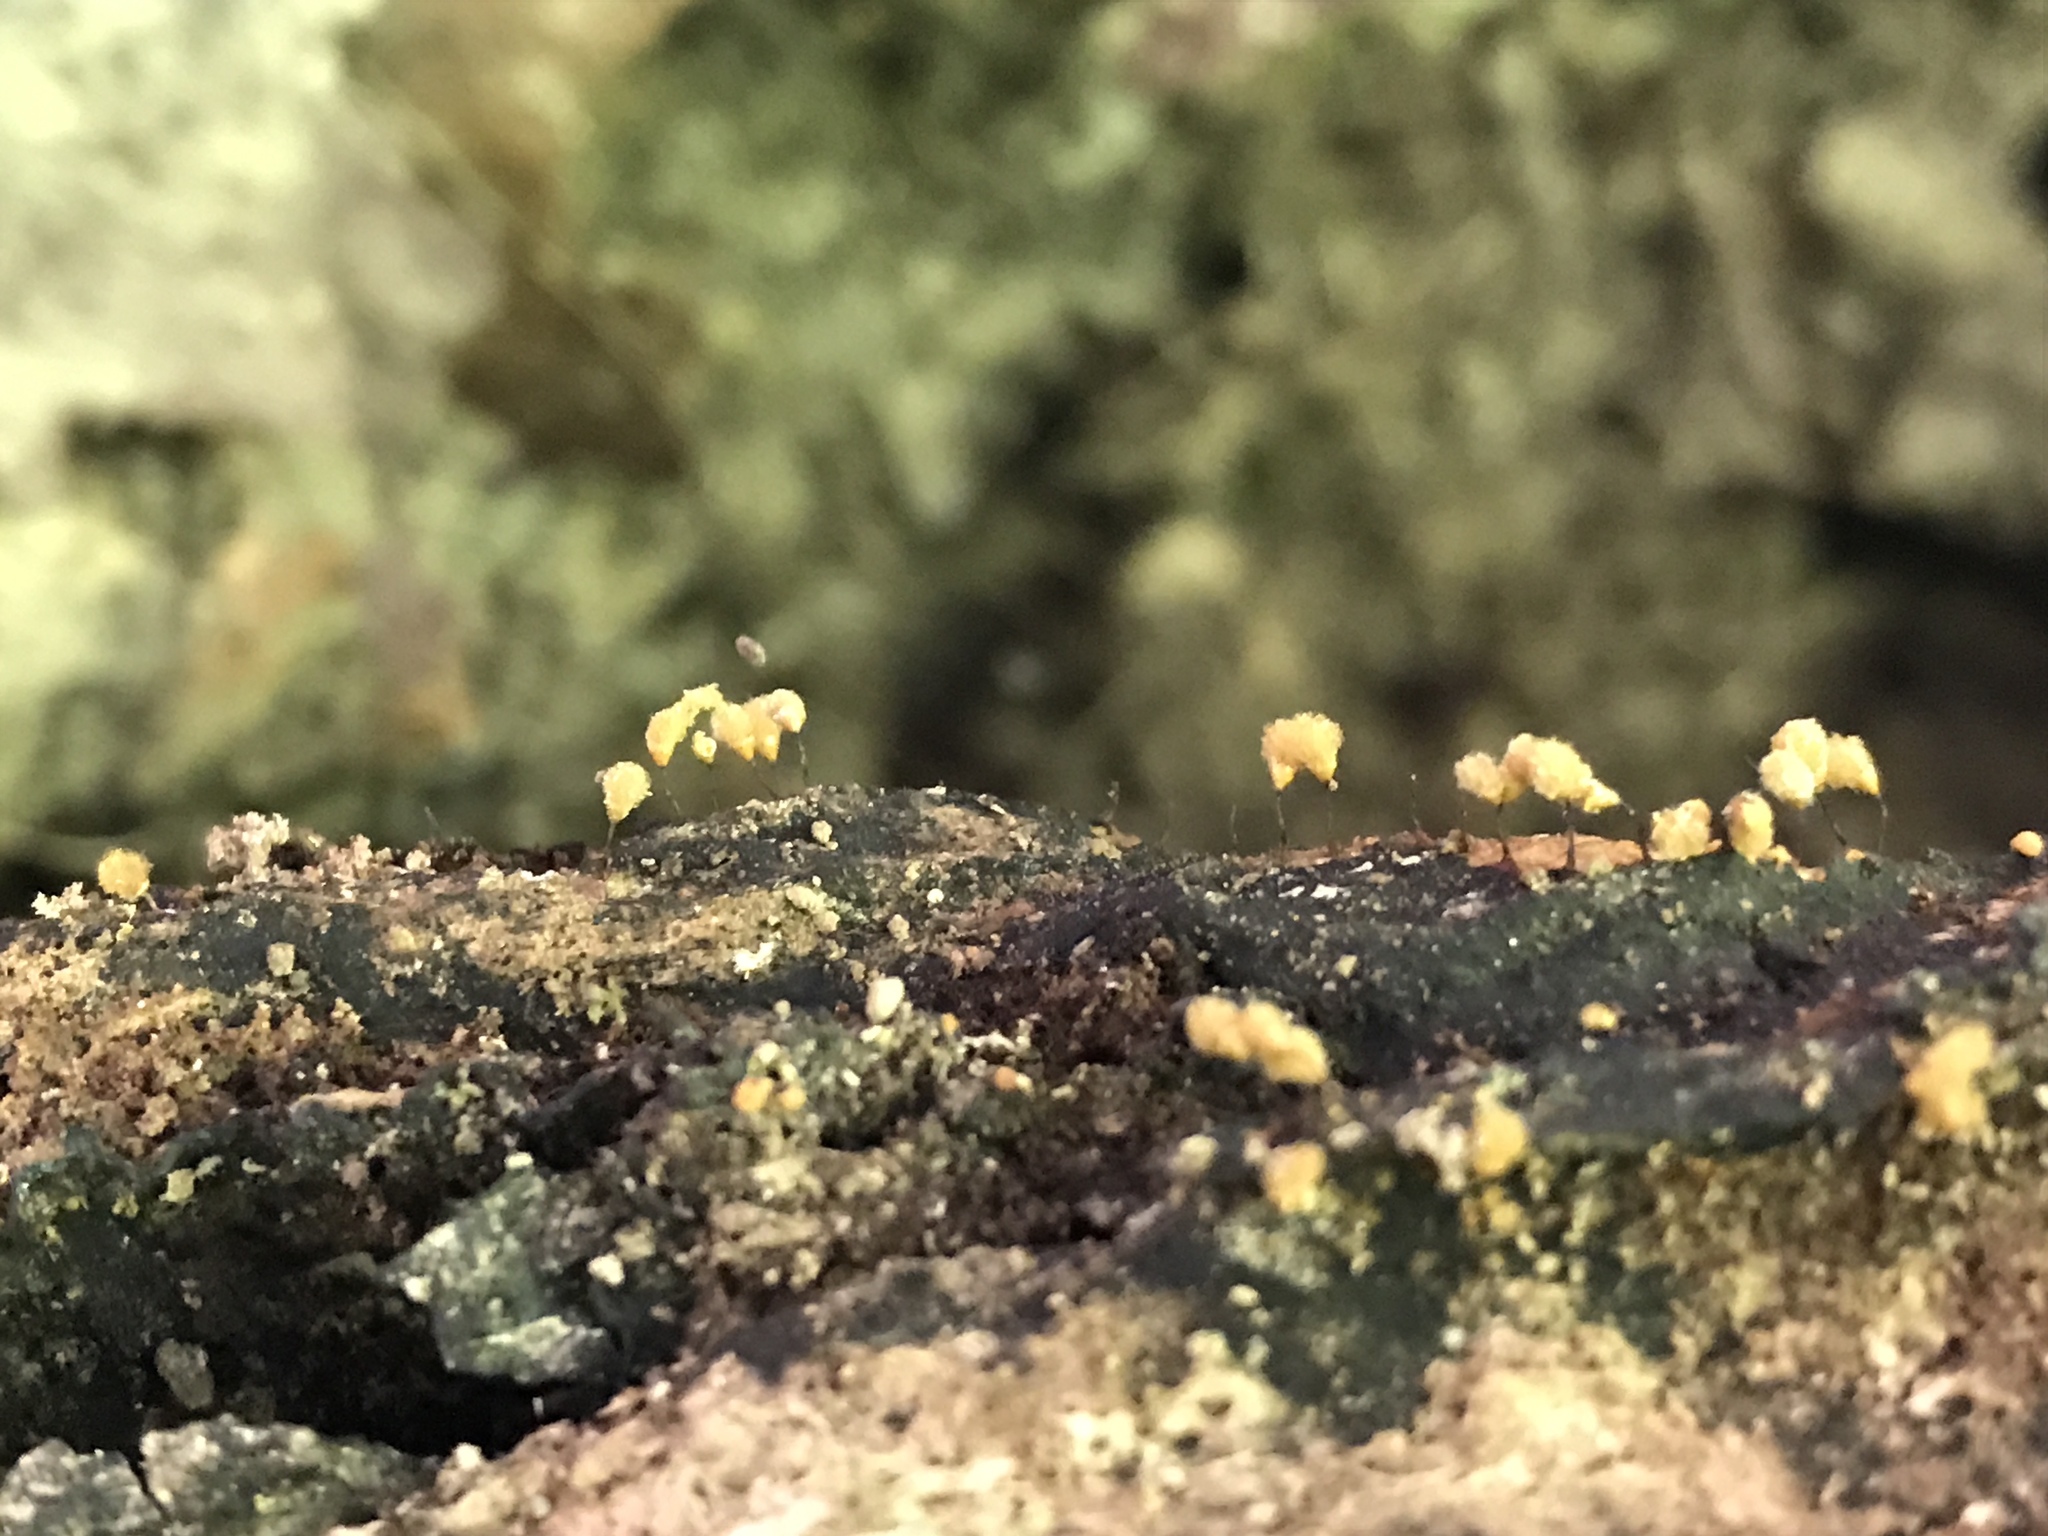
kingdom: Protozoa
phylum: Mycetozoa
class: Myxomycetes
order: Trichiales
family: Arcyriaceae
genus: Hemitrichia
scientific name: Hemitrichia calyculata
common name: Push pin slime mold
